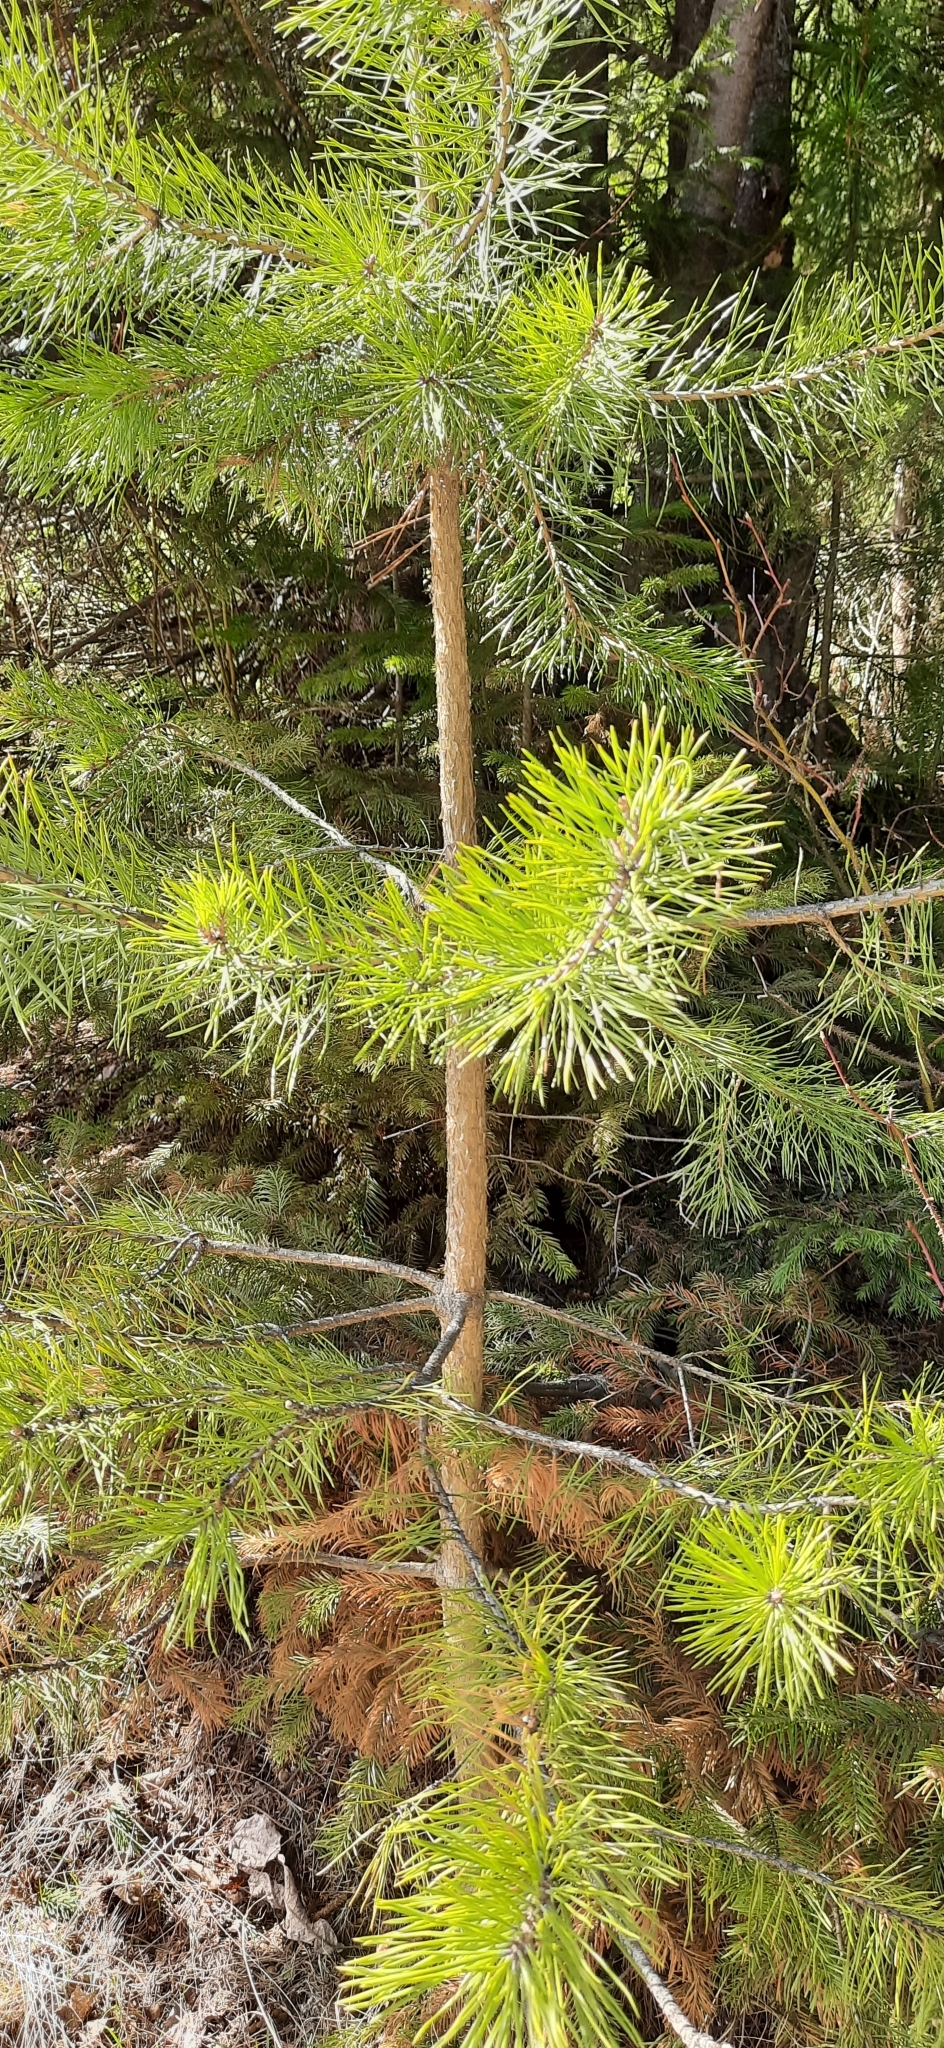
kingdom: Plantae
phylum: Tracheophyta
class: Pinopsida
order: Pinales
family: Pinaceae
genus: Pinus
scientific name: Pinus sylvestris
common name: Scots pine
